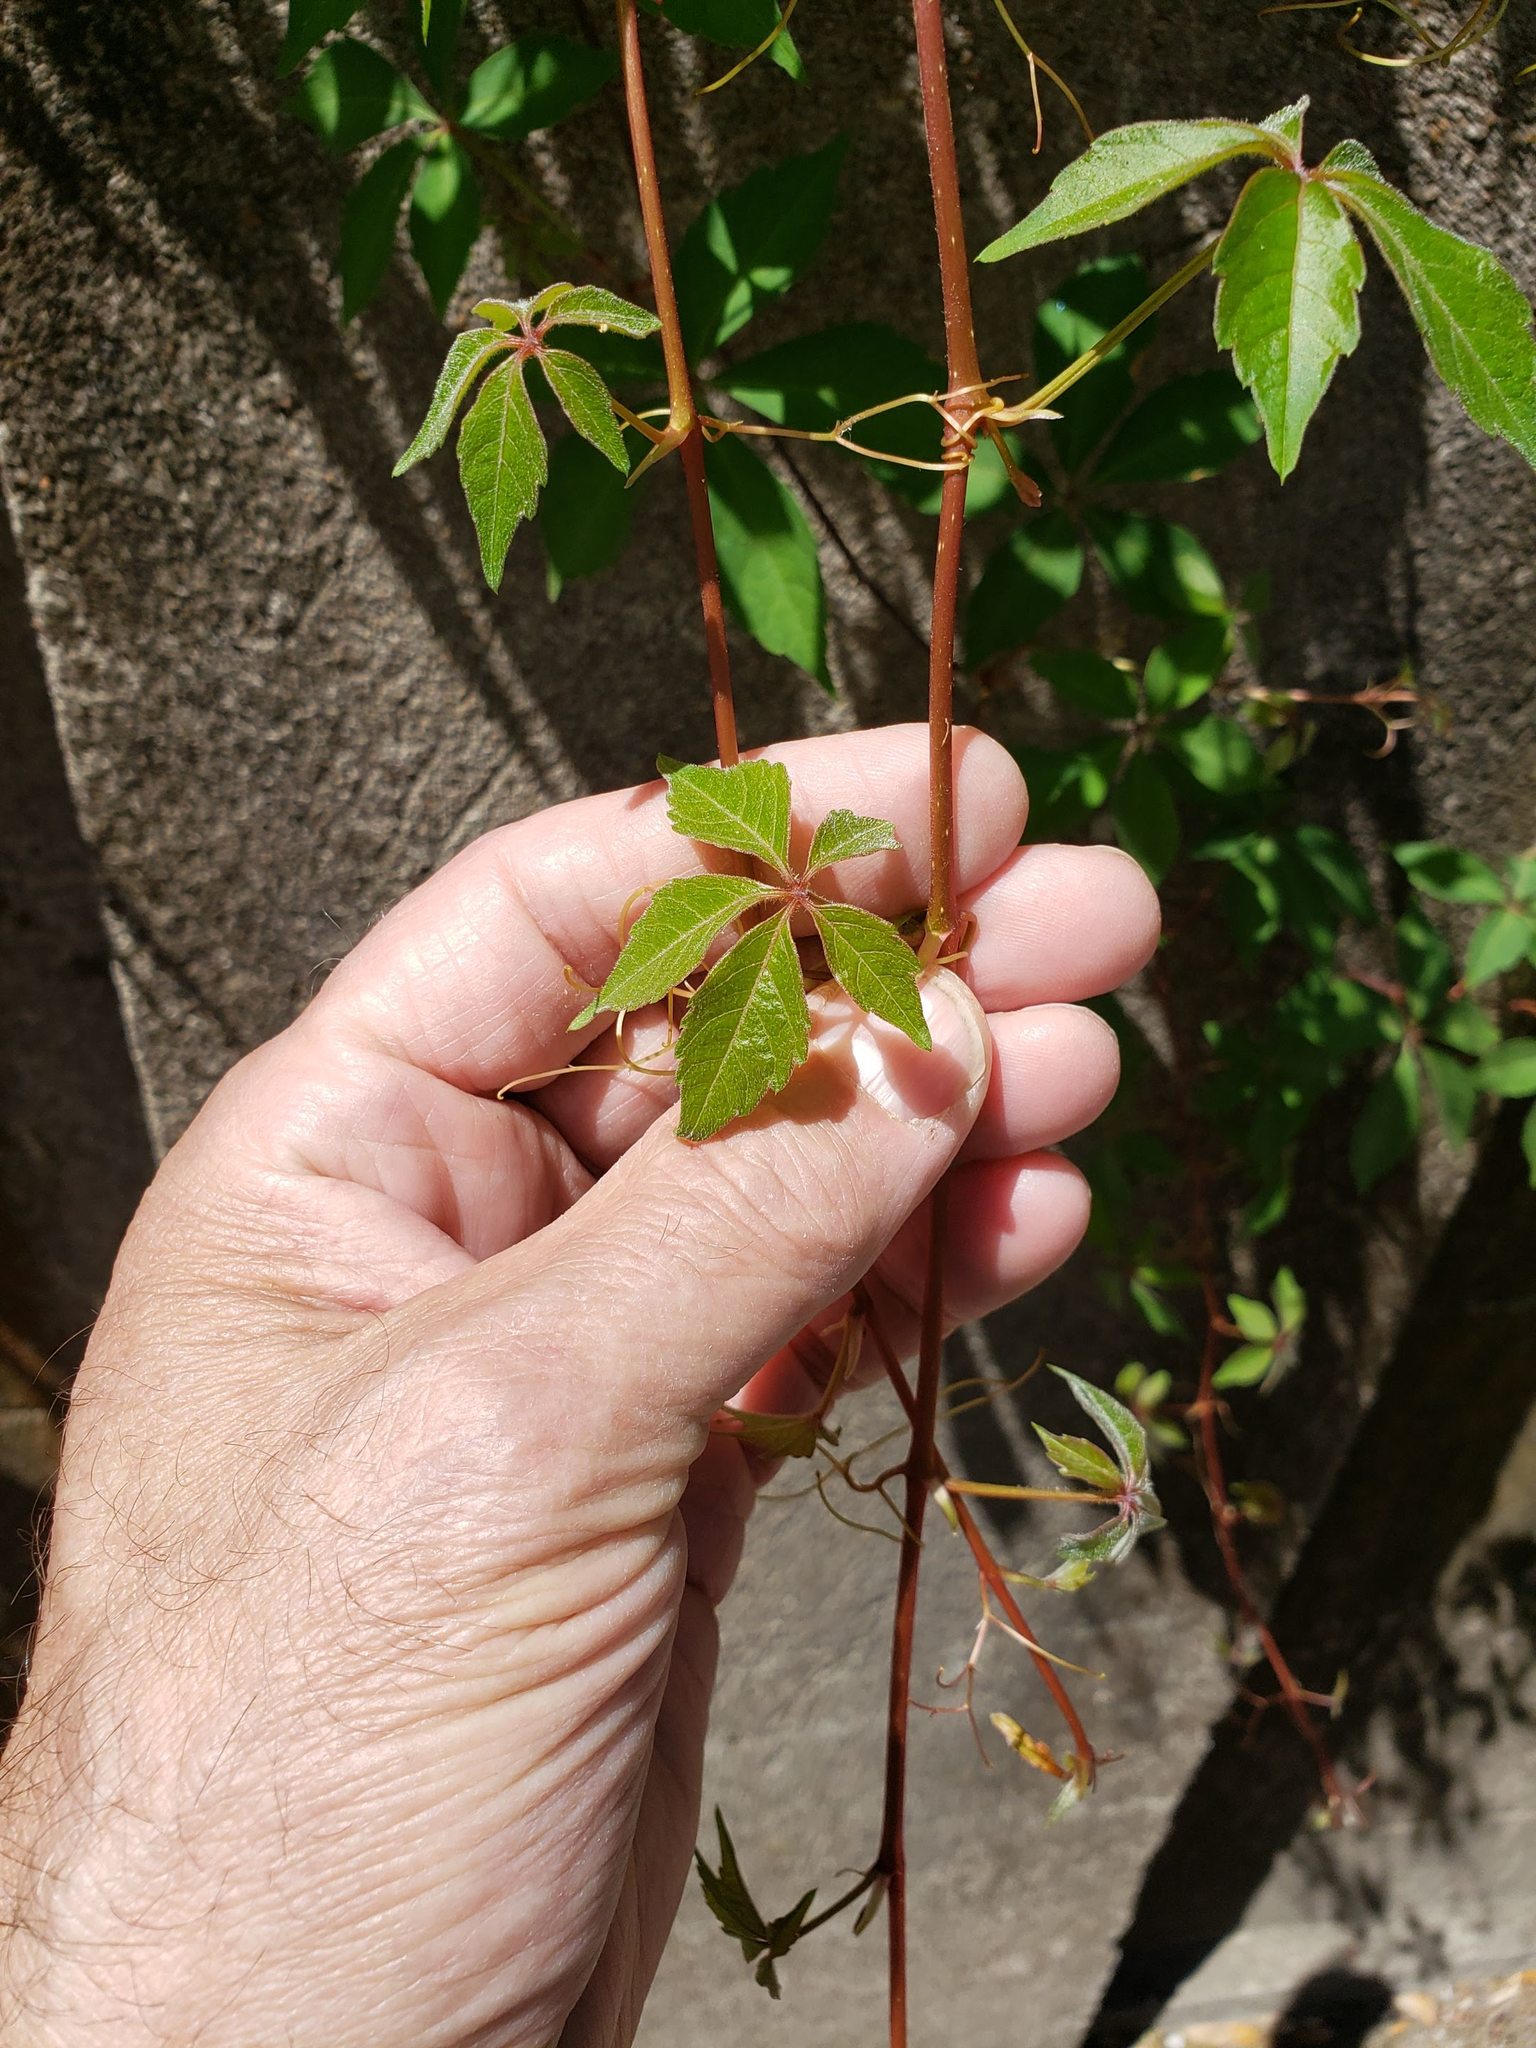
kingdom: Plantae
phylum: Tracheophyta
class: Magnoliopsida
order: Vitales
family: Vitaceae
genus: Parthenocissus
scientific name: Parthenocissus quinquefolia
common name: Virginia-creeper
